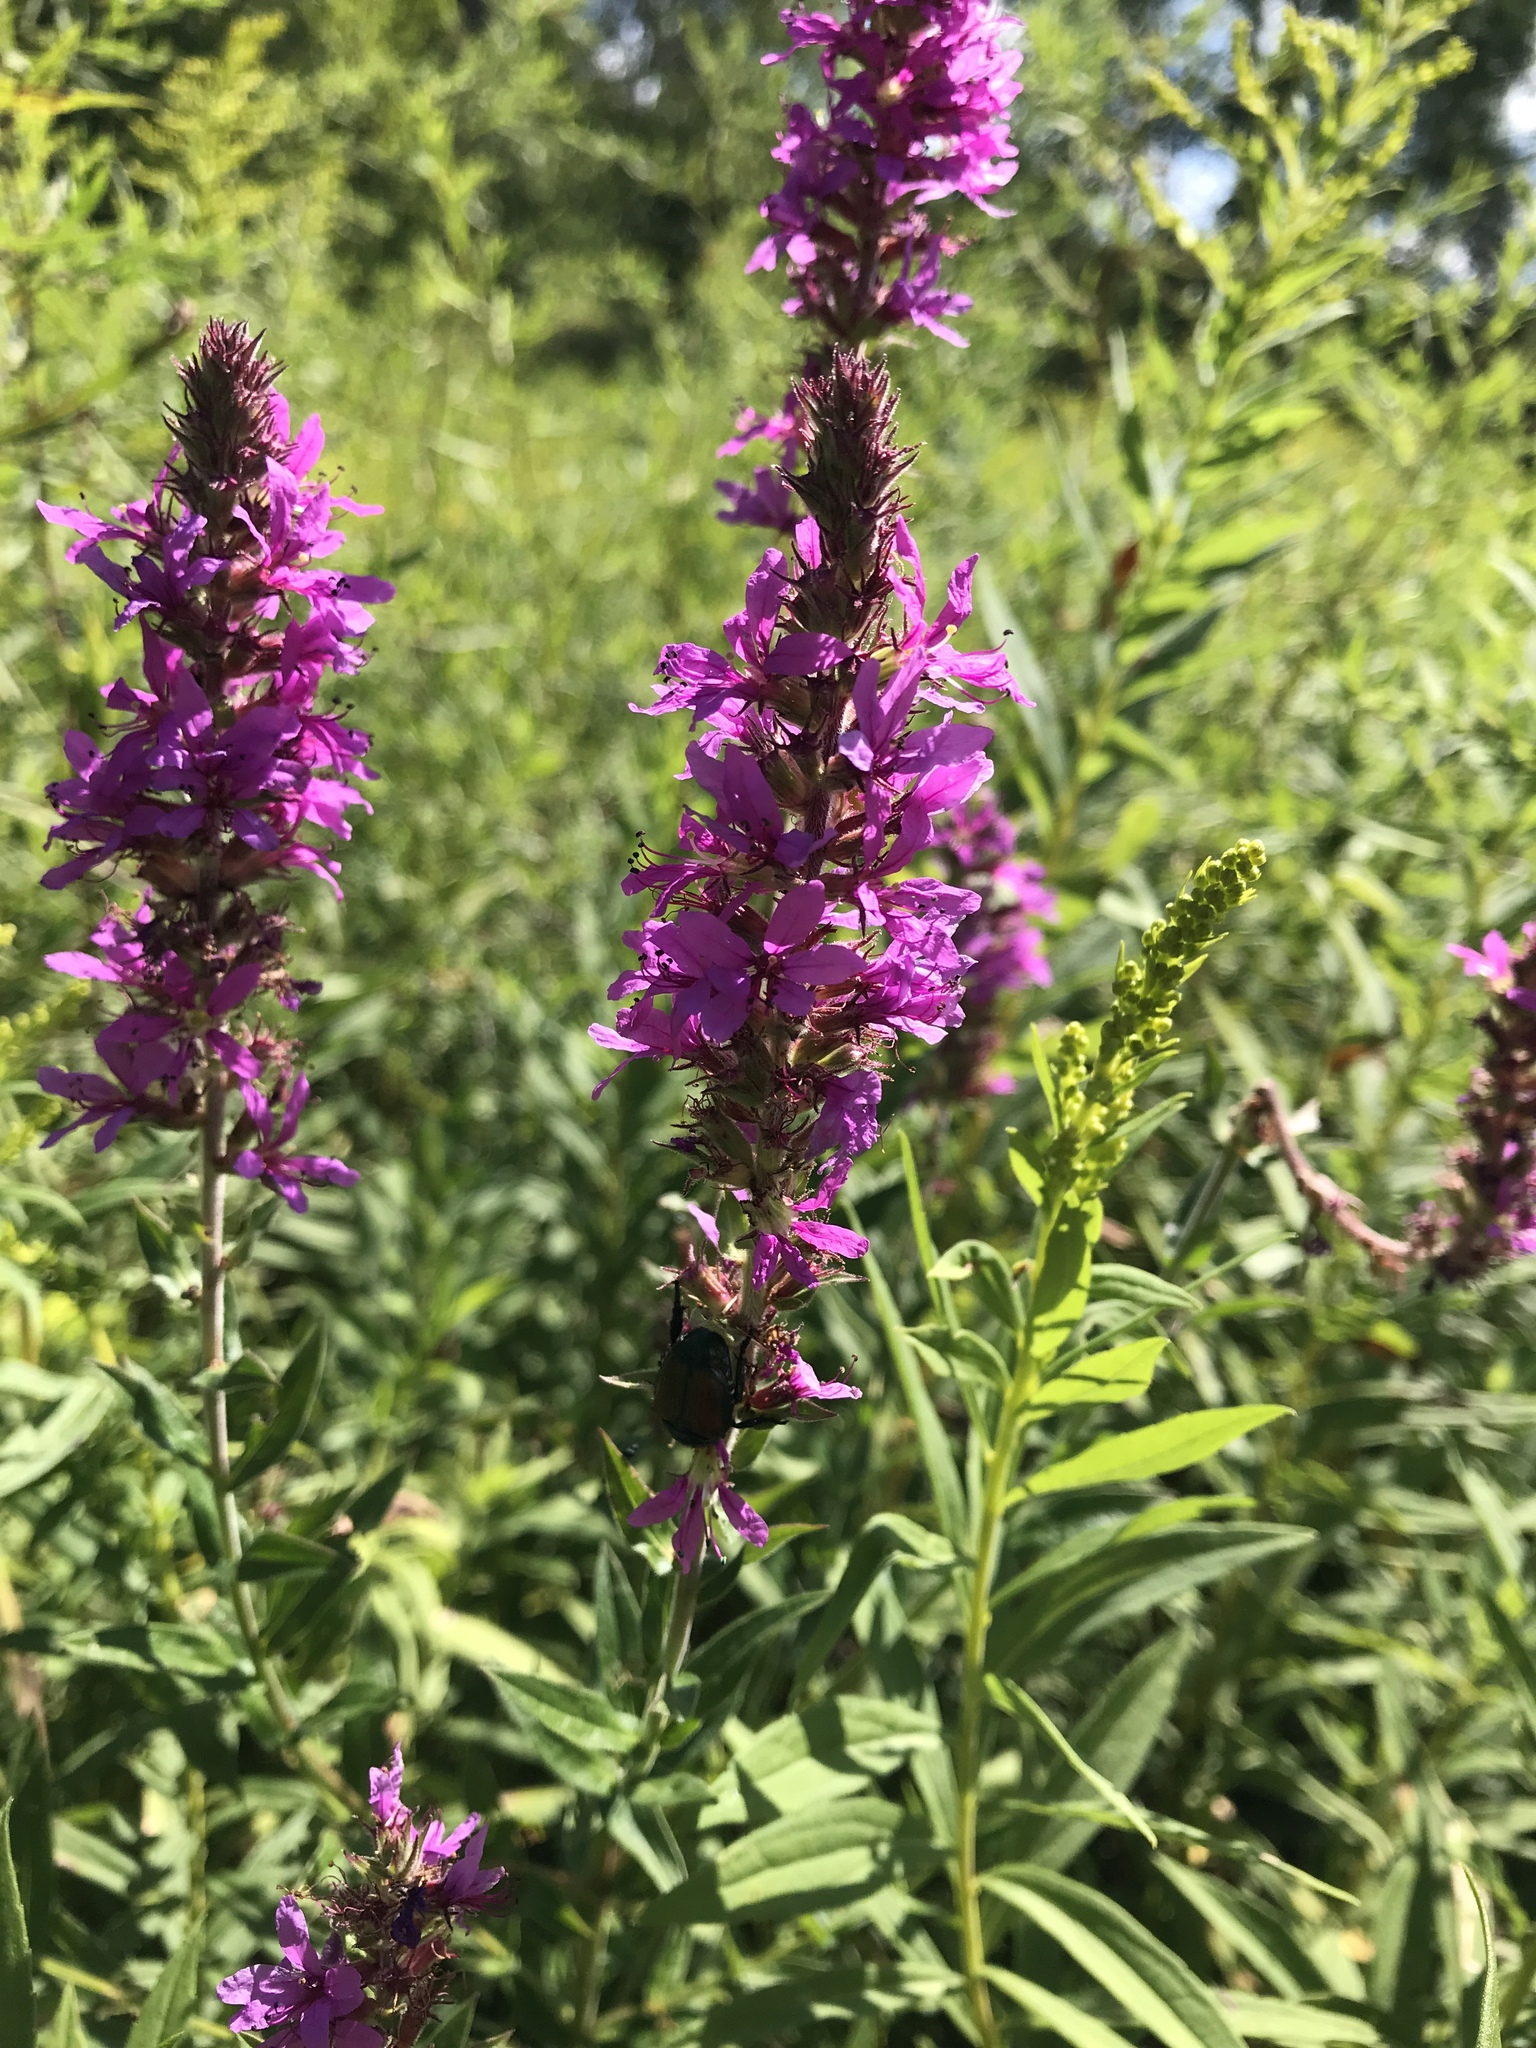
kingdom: Plantae
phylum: Tracheophyta
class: Magnoliopsida
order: Myrtales
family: Lythraceae
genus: Lythrum
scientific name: Lythrum salicaria
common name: Purple loosestrife
